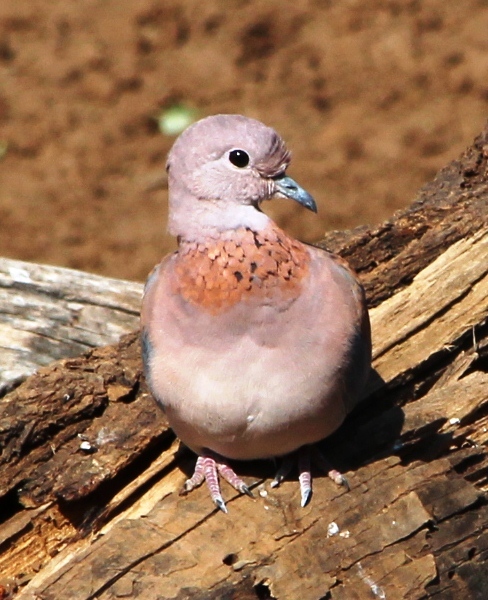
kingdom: Animalia
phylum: Chordata
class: Aves
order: Columbiformes
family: Columbidae
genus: Spilopelia
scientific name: Spilopelia senegalensis
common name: Laughing dove
